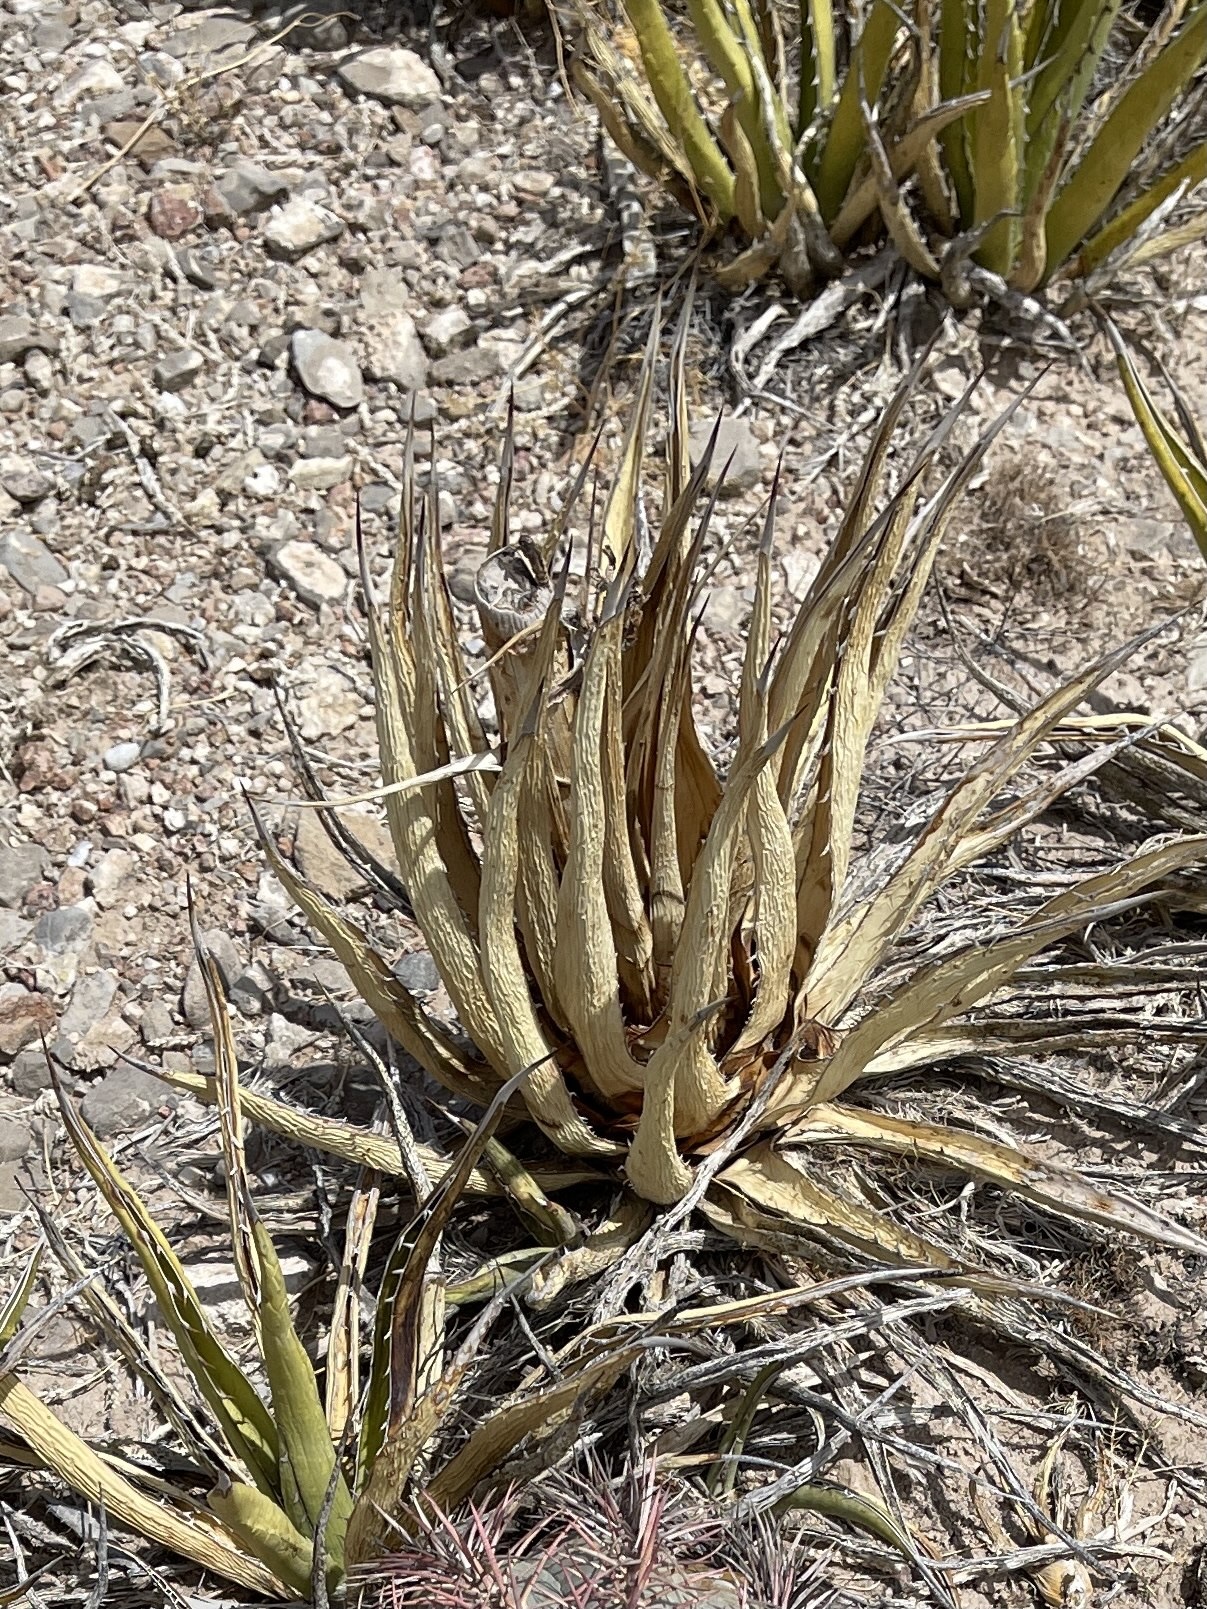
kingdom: Plantae
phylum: Tracheophyta
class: Liliopsida
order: Asparagales
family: Asparagaceae
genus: Agave
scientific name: Agave lechuguilla
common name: Lecheguilla agave
